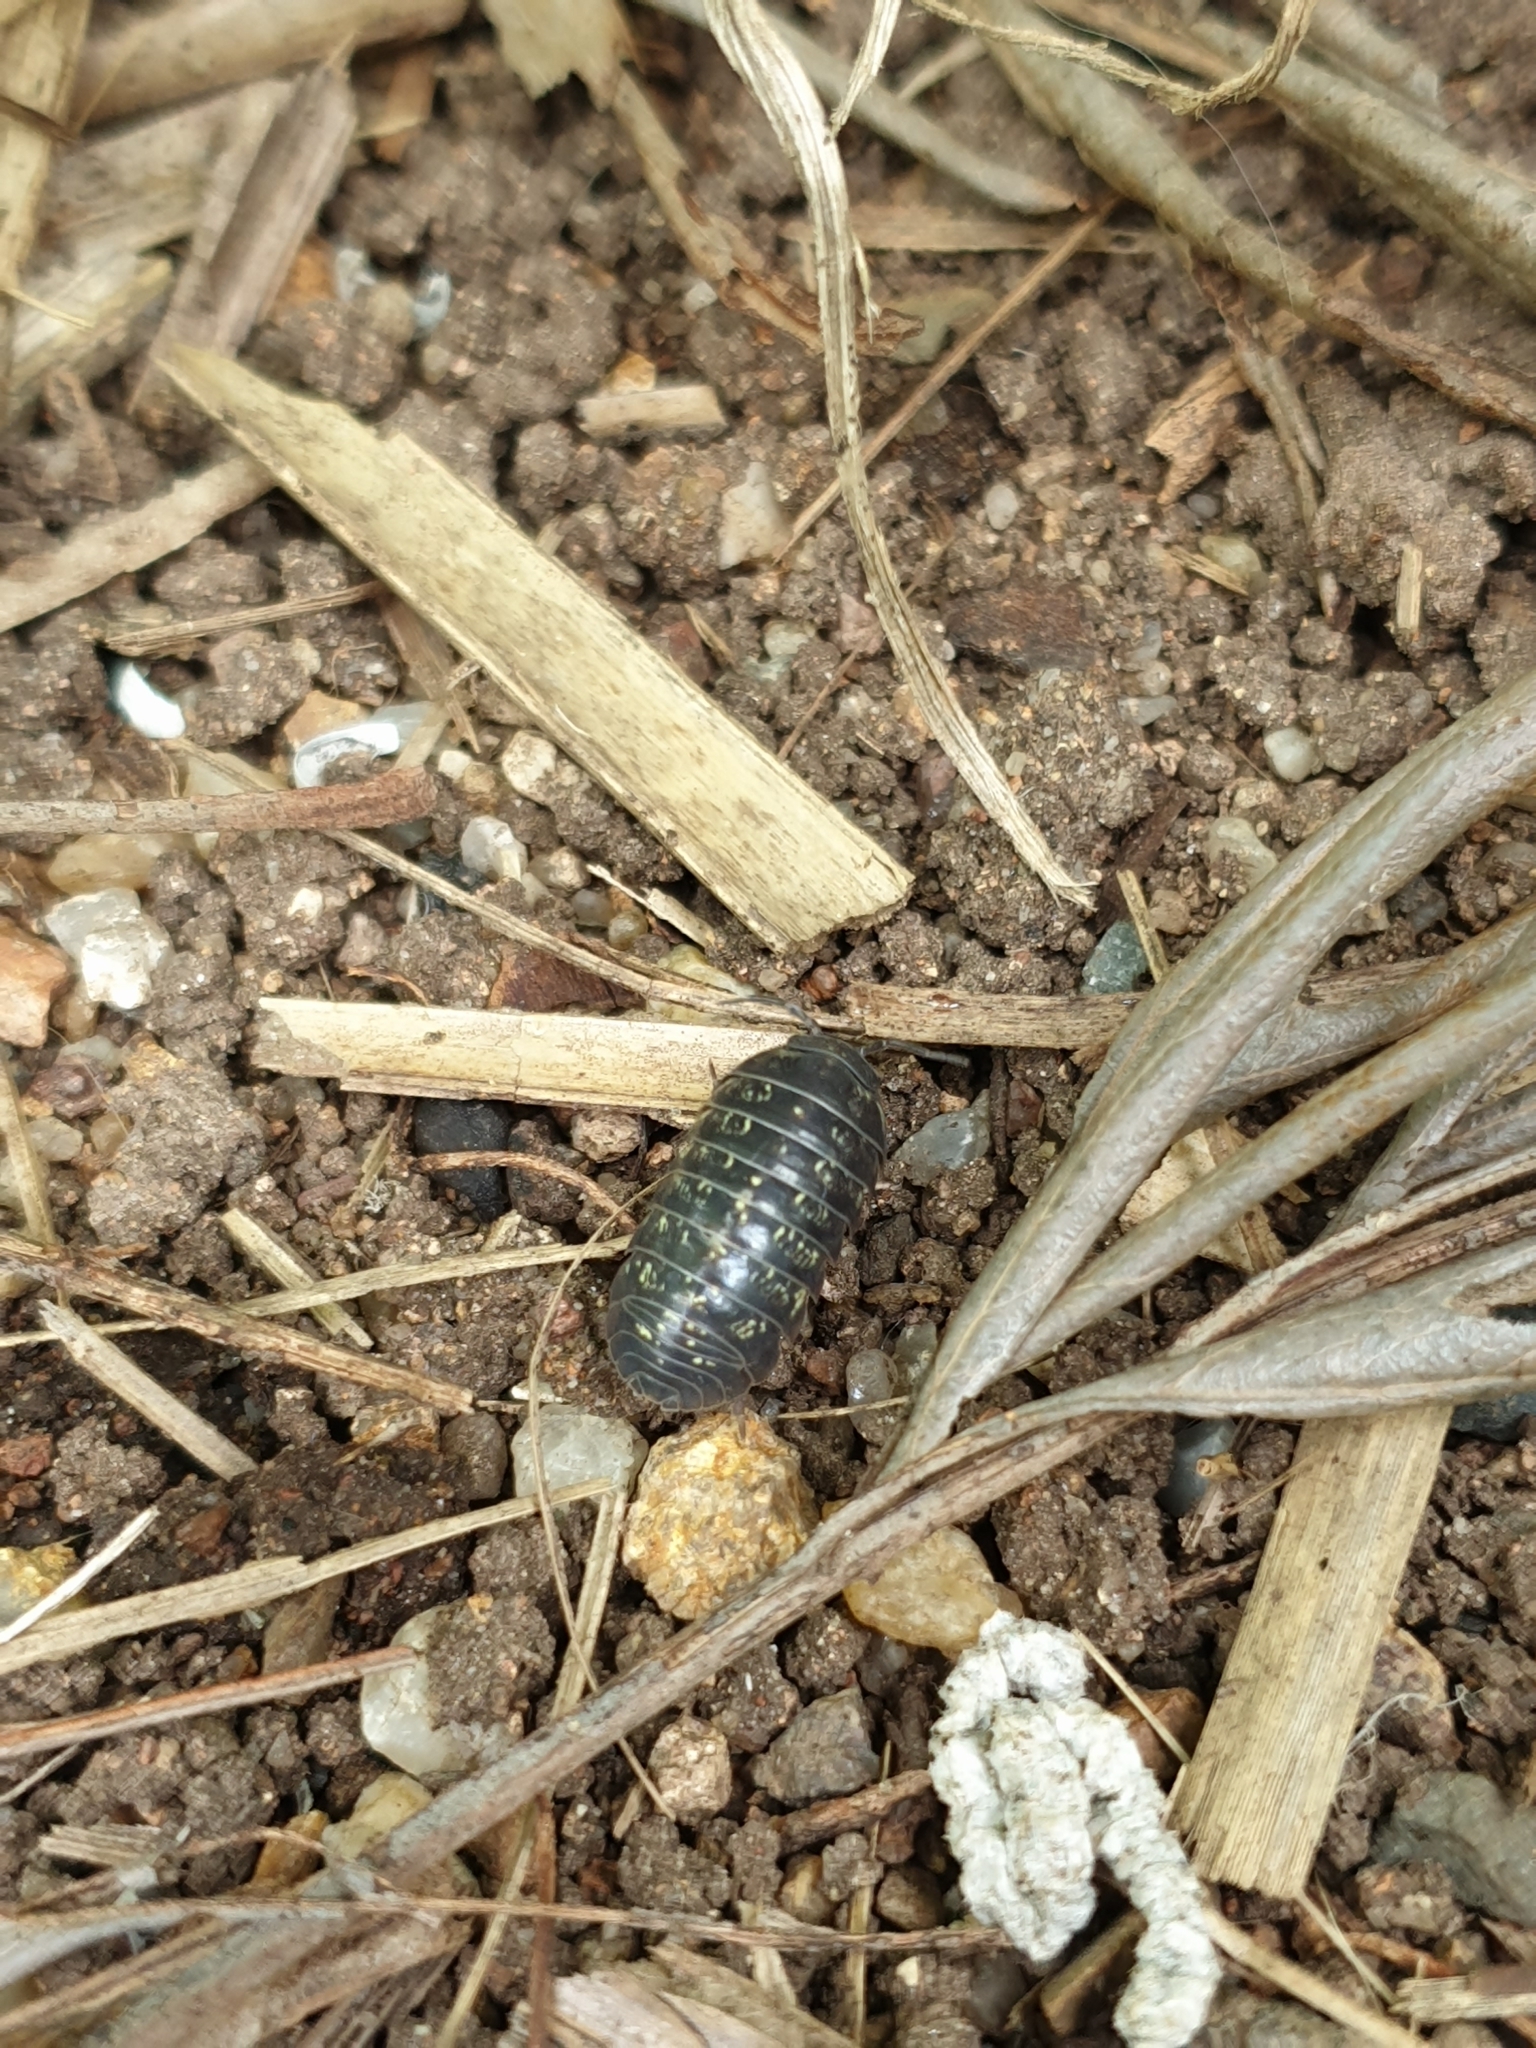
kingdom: Animalia
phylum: Arthropoda
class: Malacostraca
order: Isopoda
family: Armadillidiidae
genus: Armadillidium
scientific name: Armadillidium vulgare
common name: Common pill woodlouse
